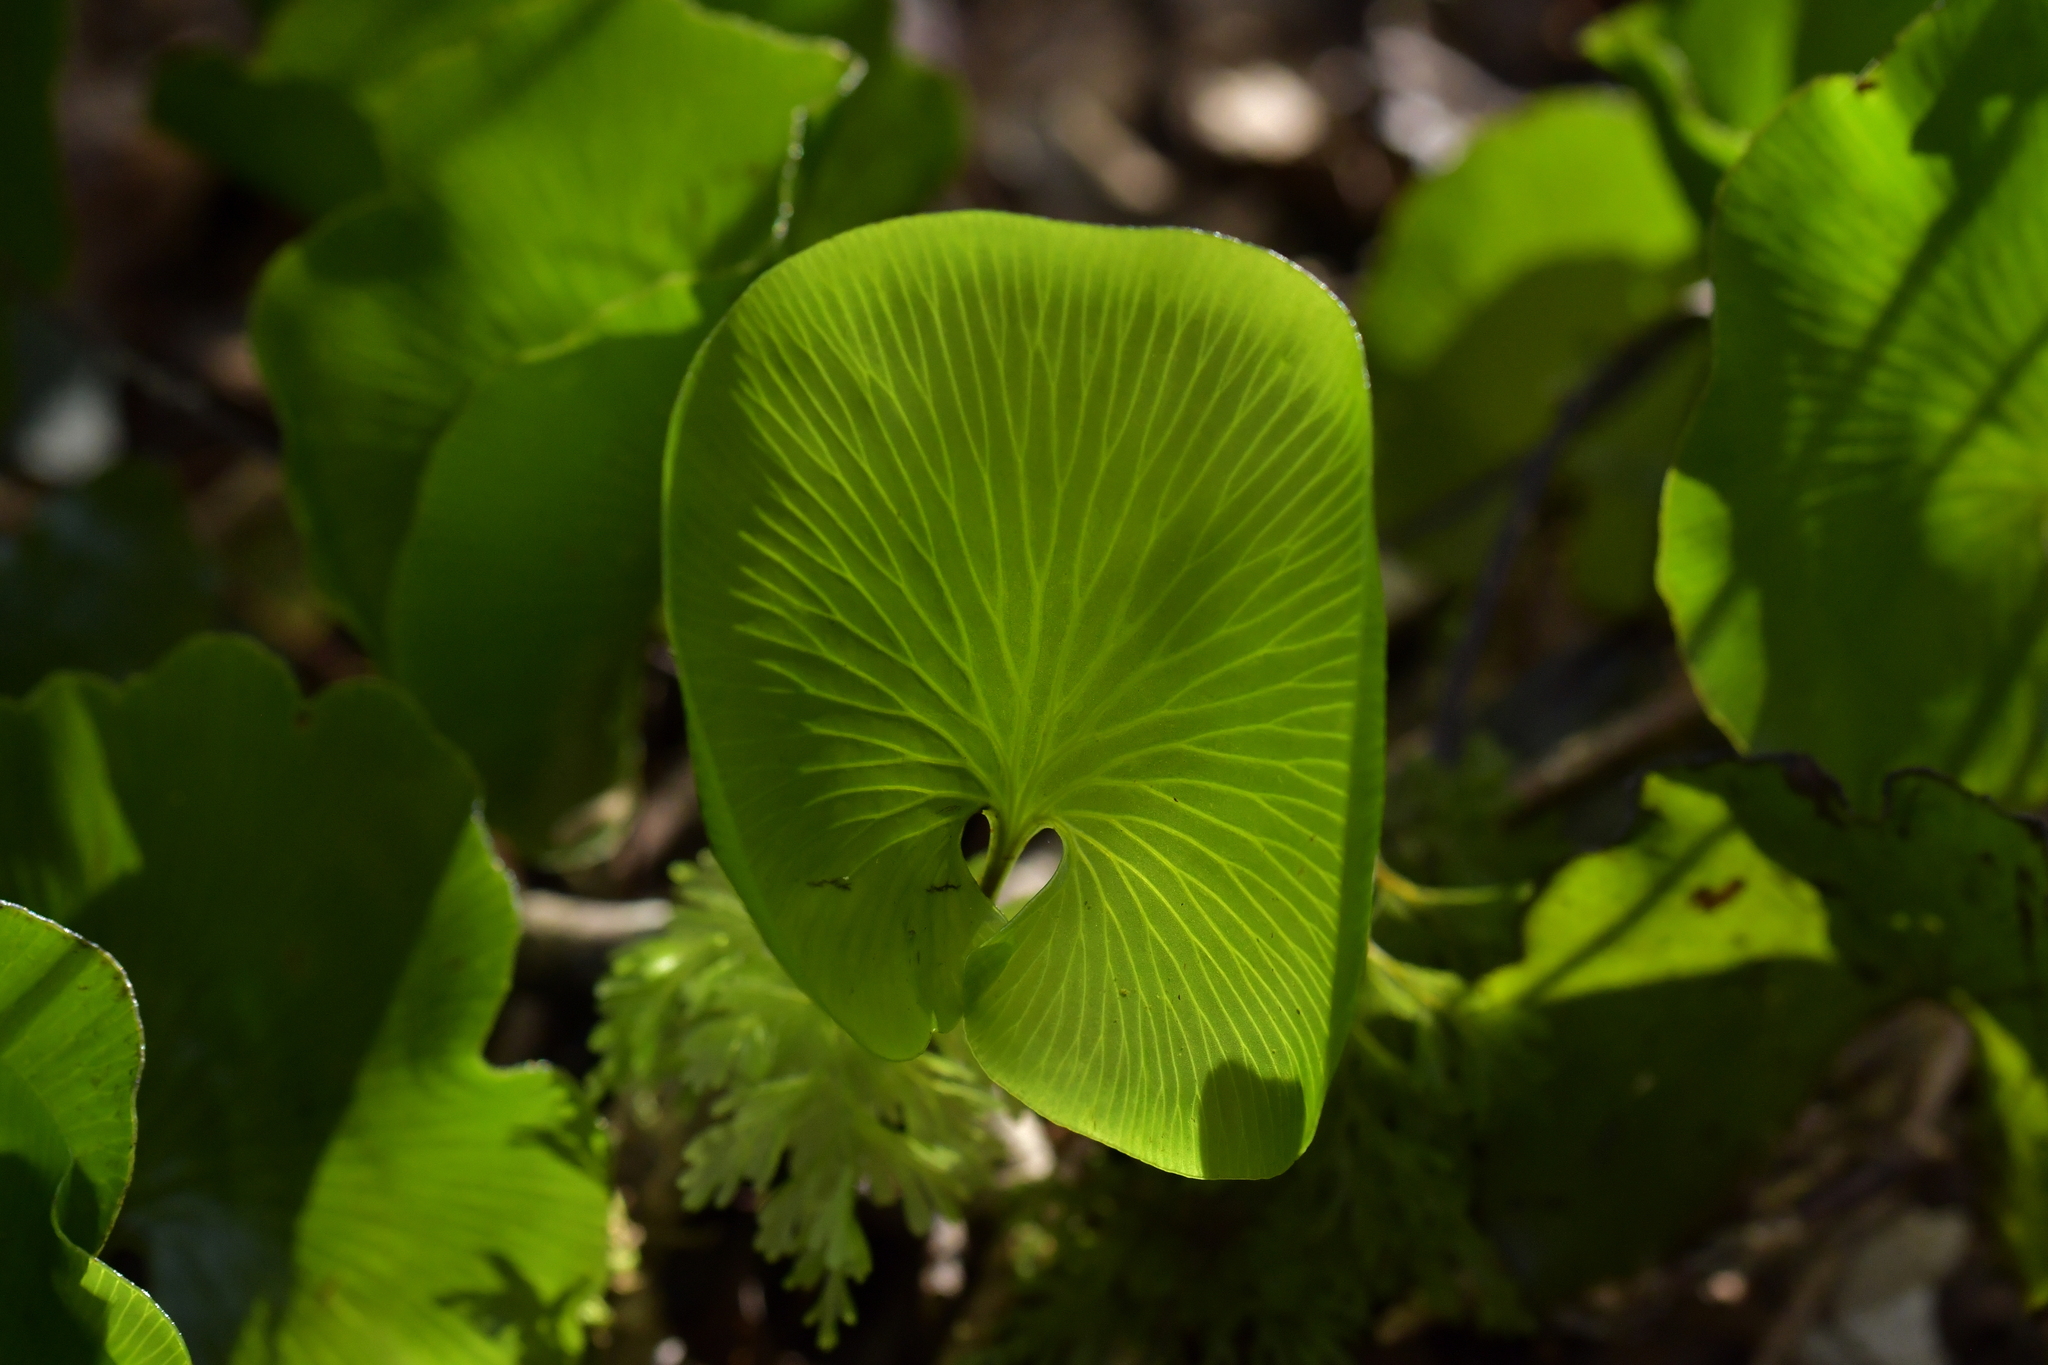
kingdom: Plantae
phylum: Tracheophyta
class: Polypodiopsida
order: Hymenophyllales
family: Hymenophyllaceae
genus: Hymenophyllum
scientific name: Hymenophyllum nephrophyllum
